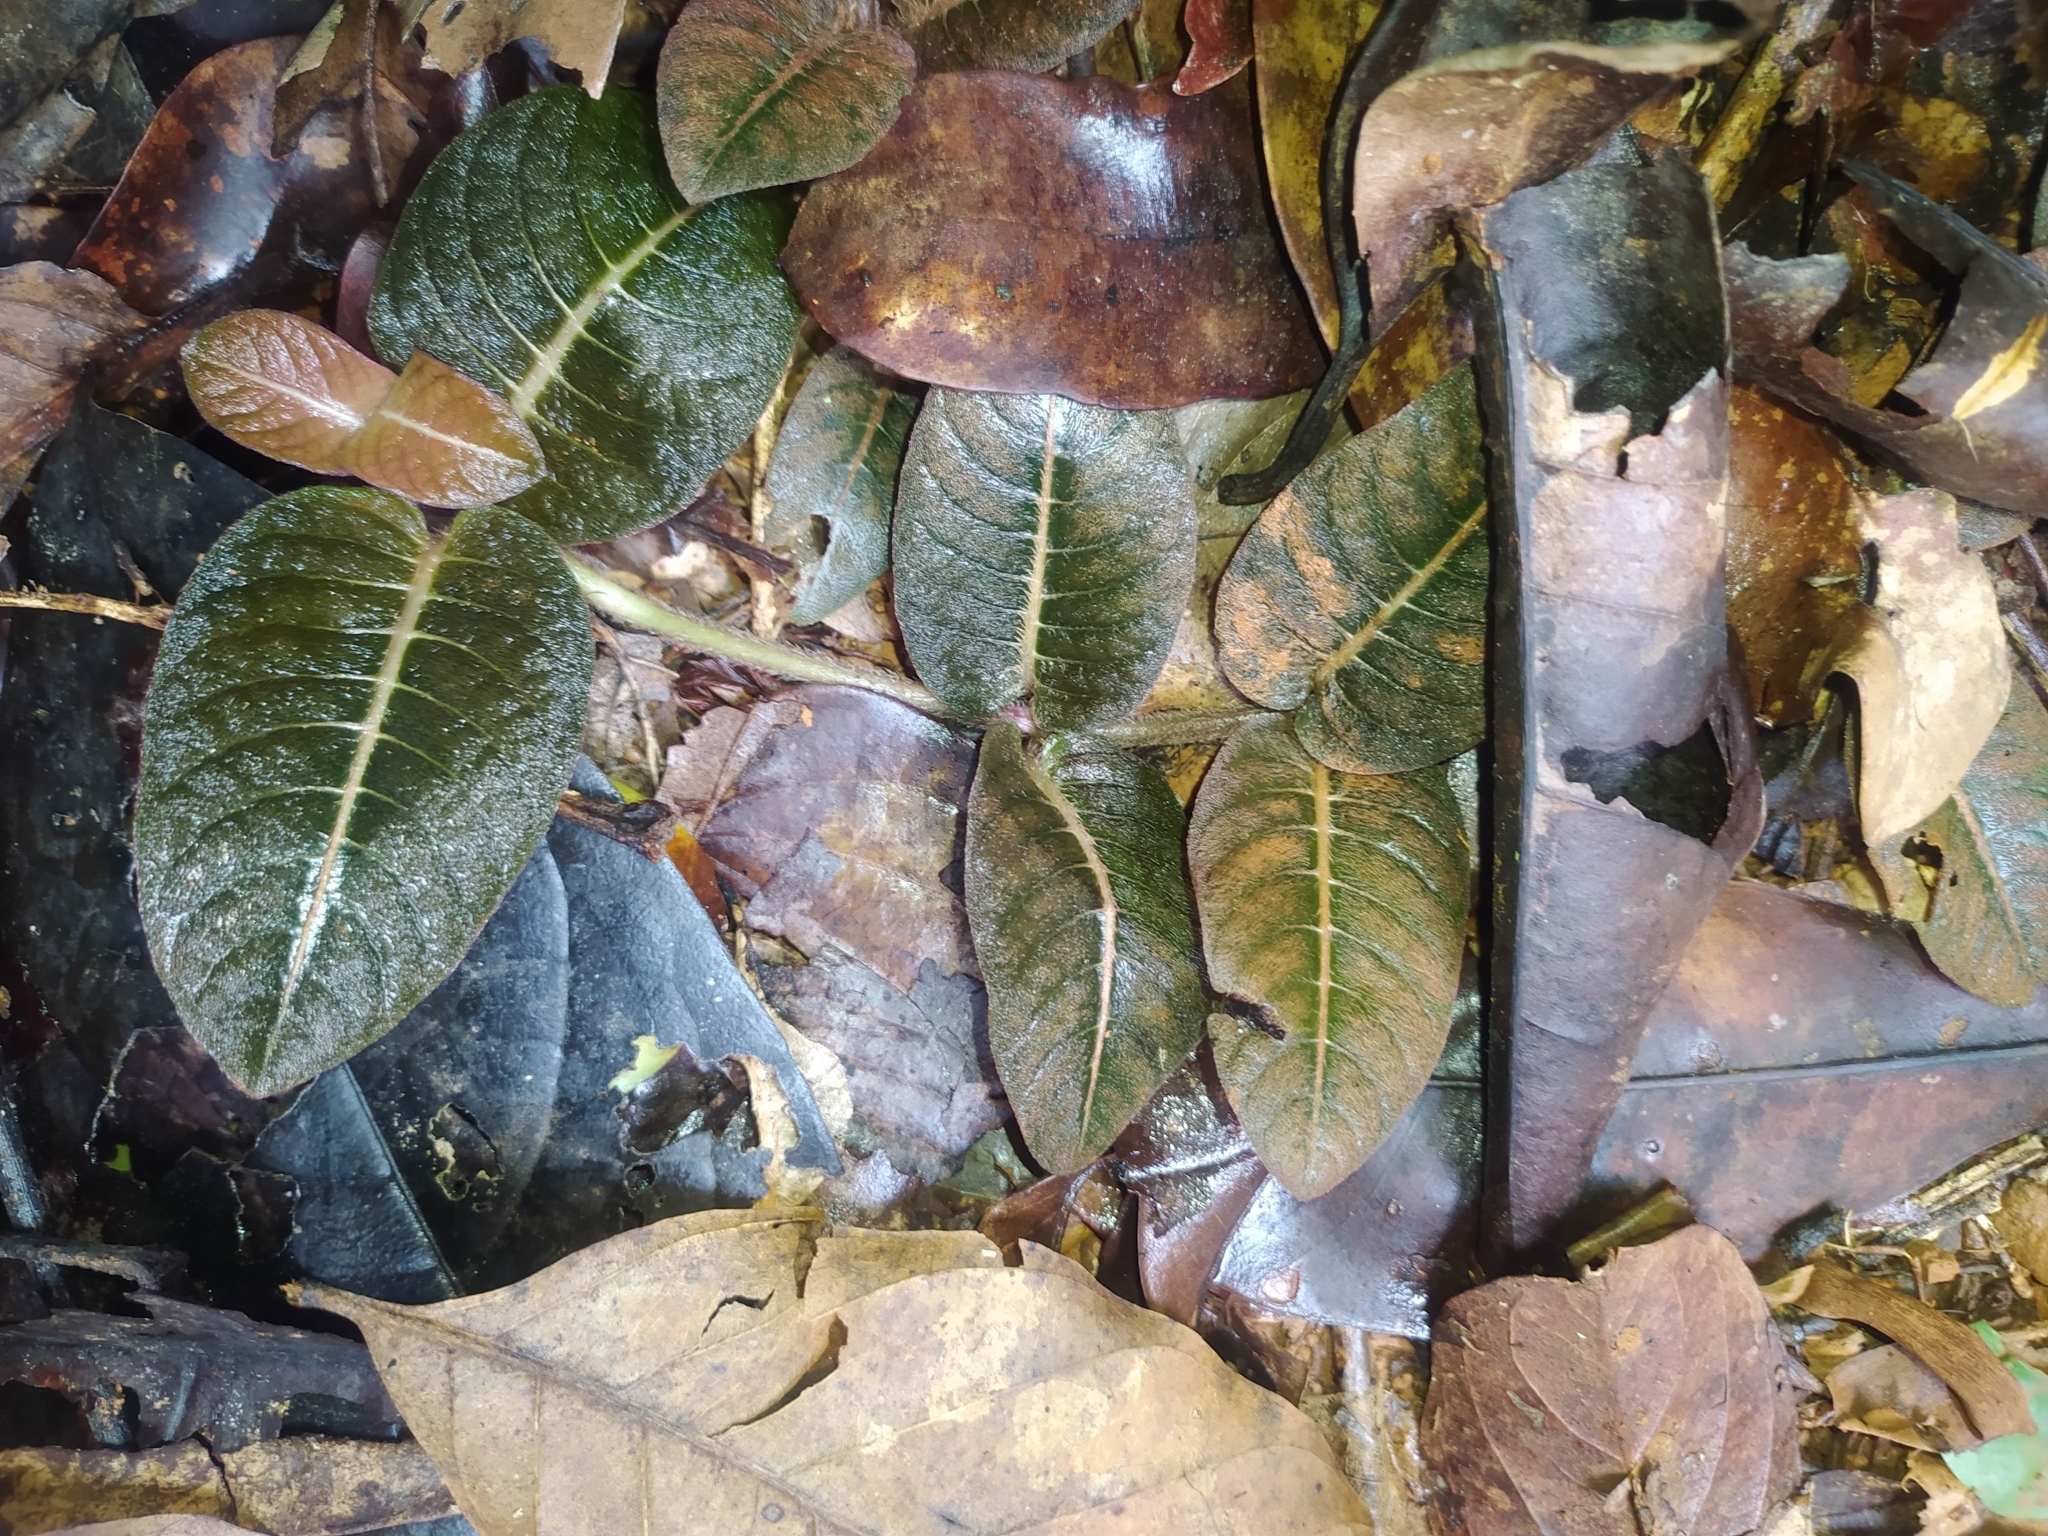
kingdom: Plantae
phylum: Tracheophyta
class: Magnoliopsida
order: Gentianales
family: Rubiaceae
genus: Palicourea
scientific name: Palicourea alba
